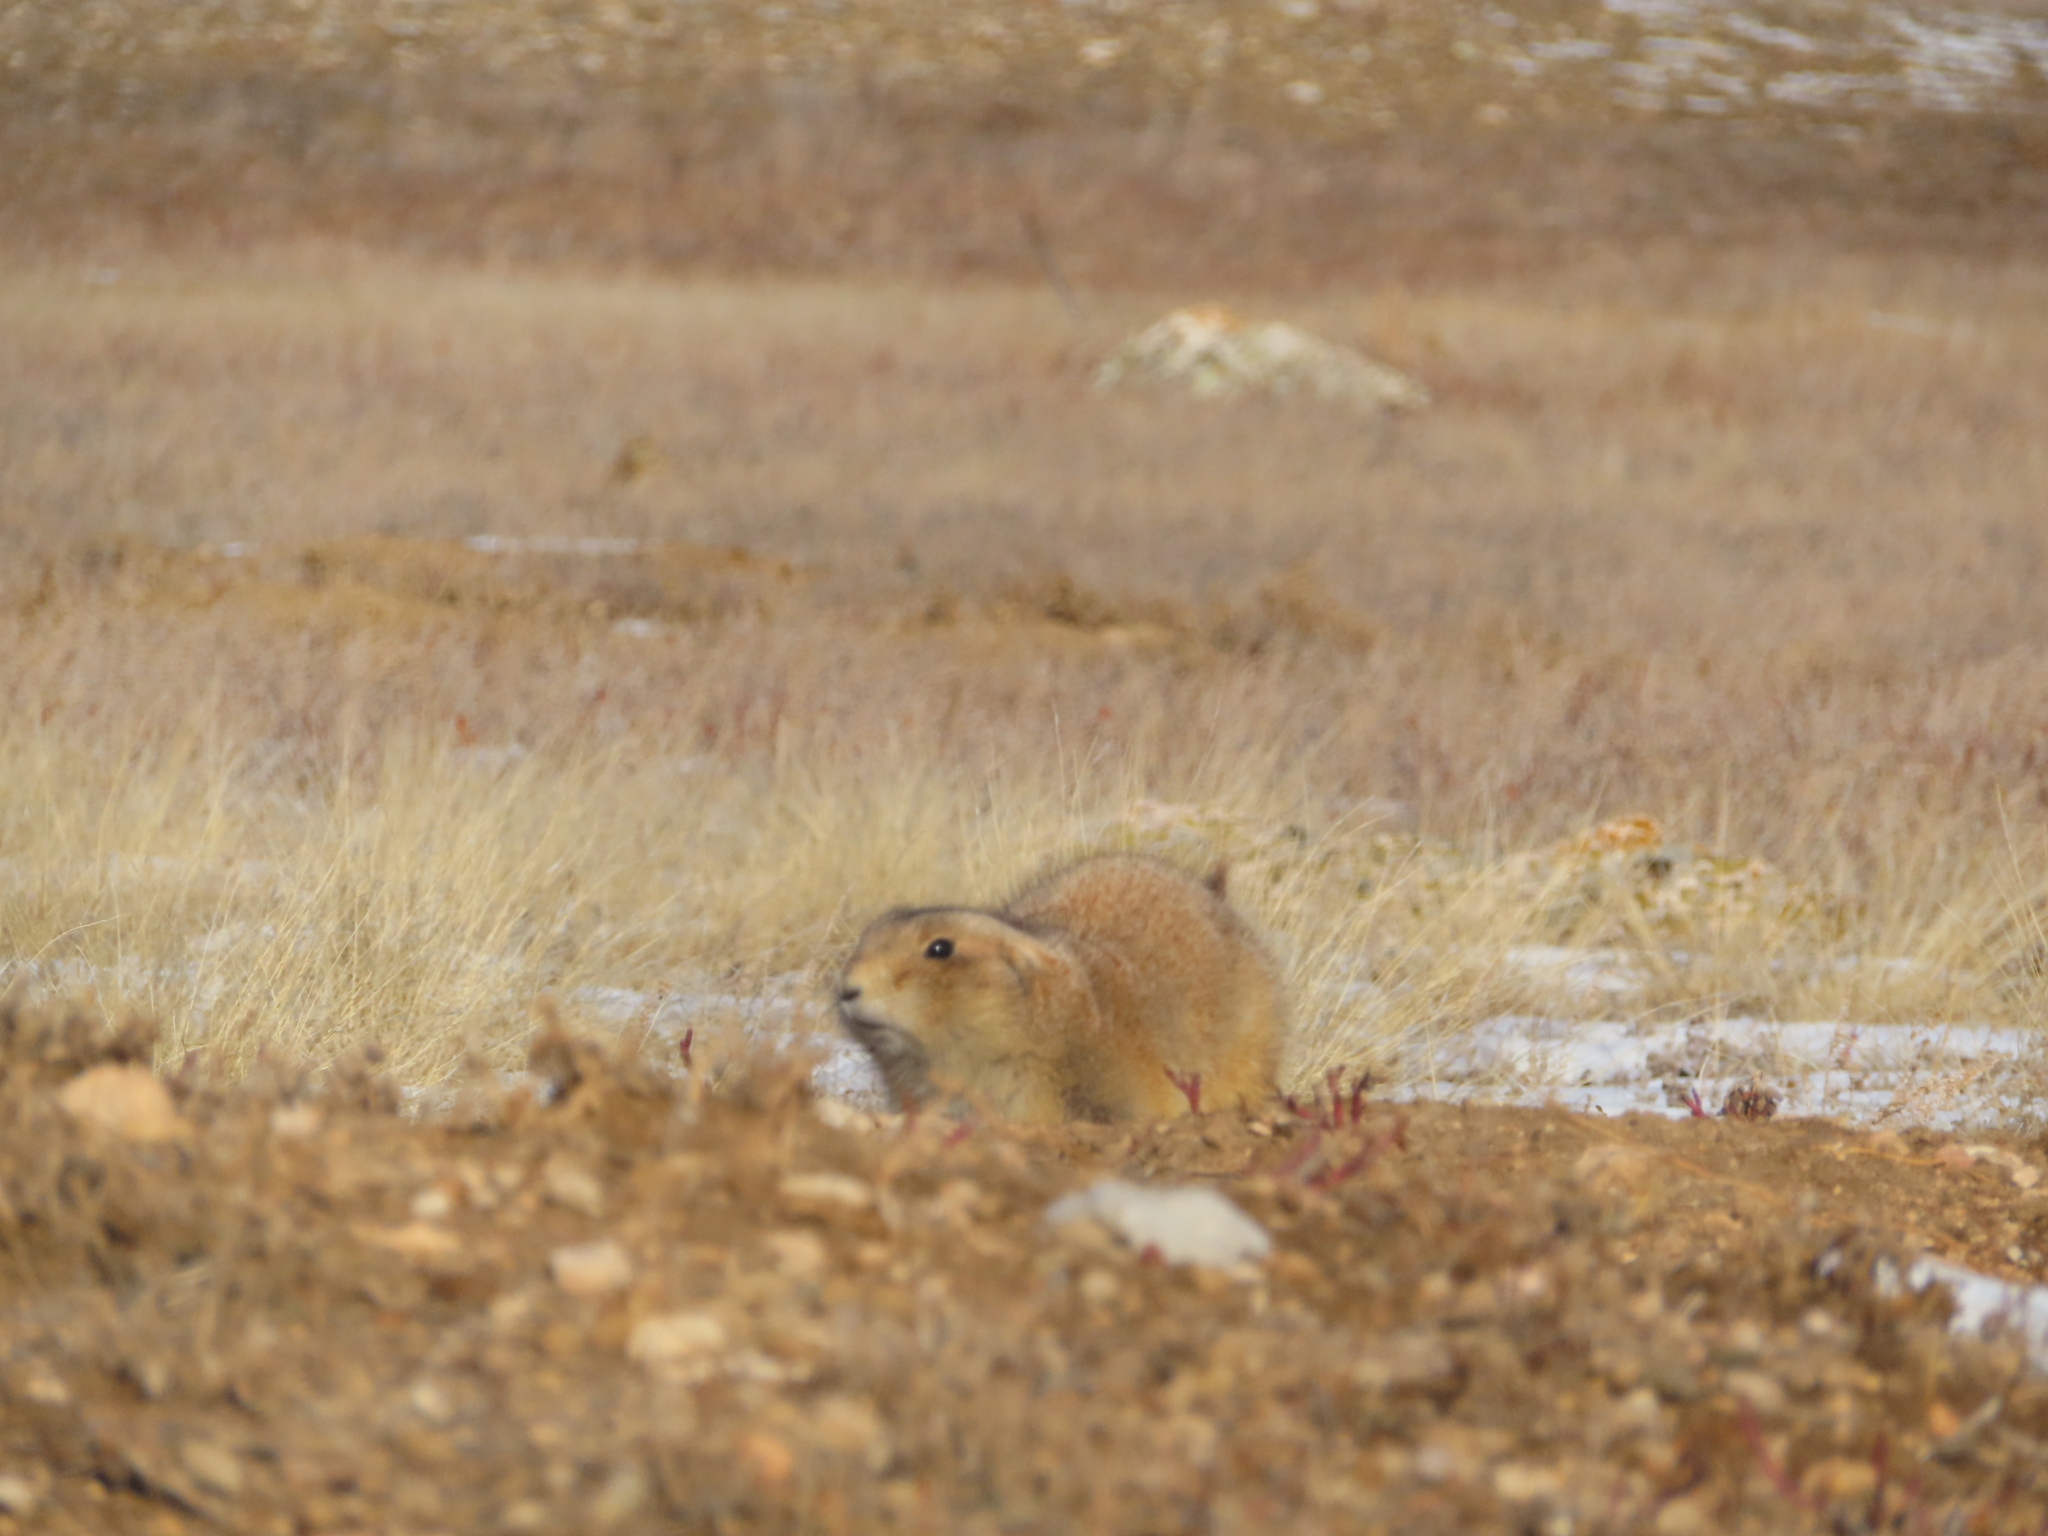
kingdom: Animalia
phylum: Chordata
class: Mammalia
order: Rodentia
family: Sciuridae
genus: Cynomys
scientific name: Cynomys ludovicianus
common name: Black-tailed prairie dog
